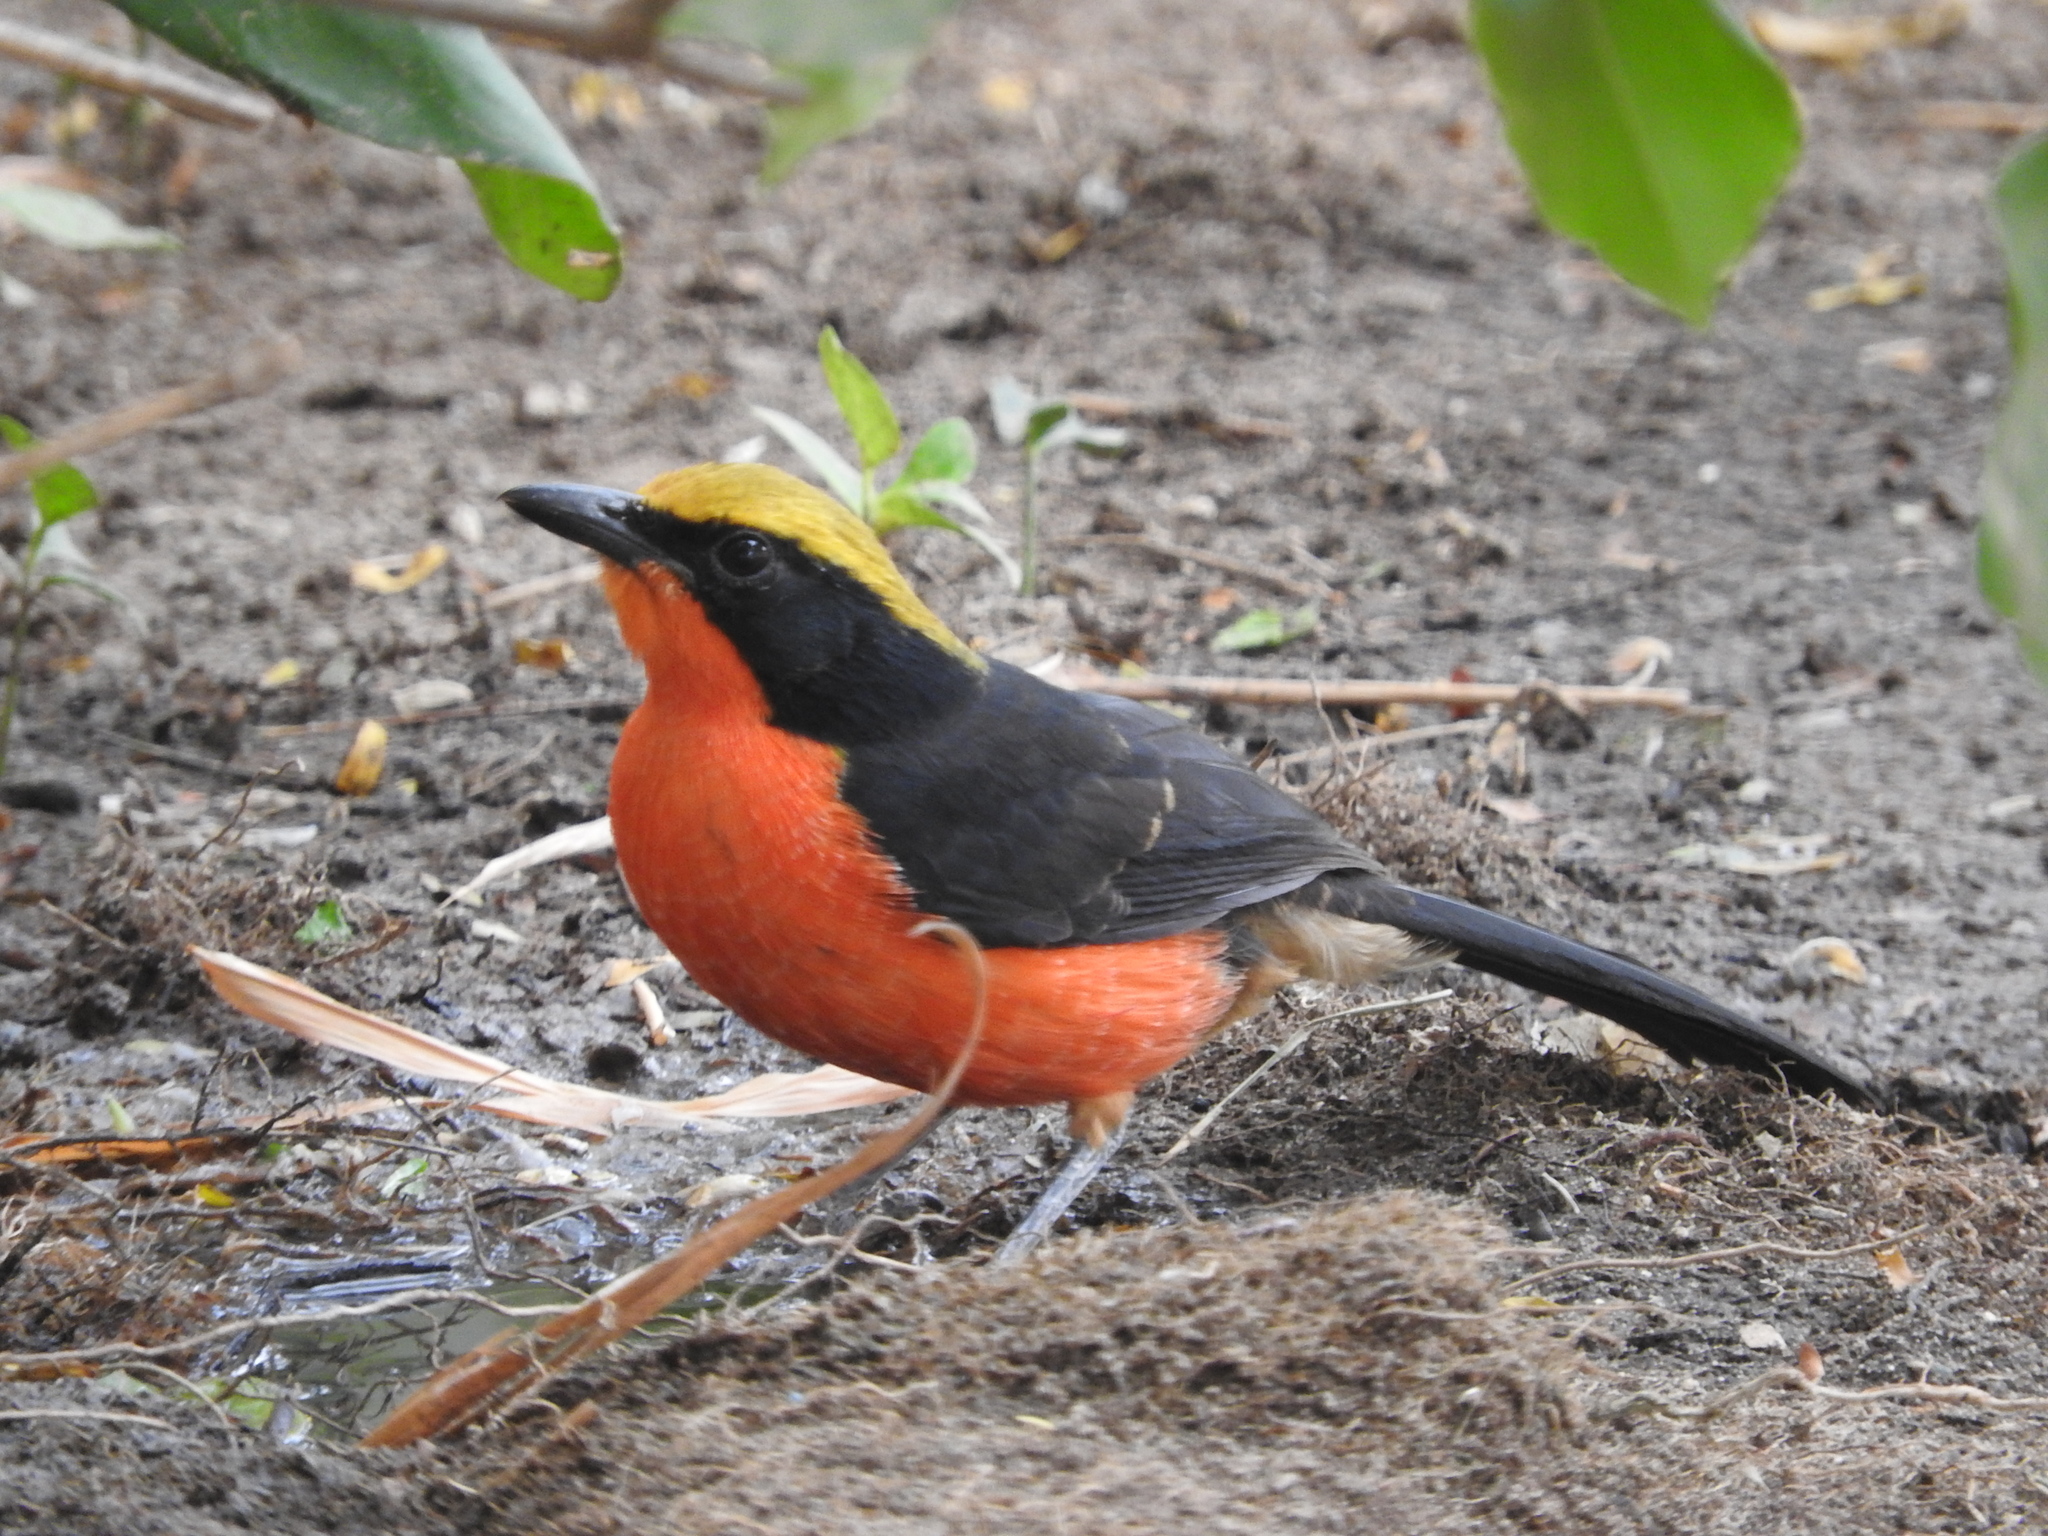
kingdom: Animalia
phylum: Chordata
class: Aves
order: Passeriformes
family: Malaconotidae
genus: Laniarius
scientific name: Laniarius barbarus
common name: Yellow-crowned gonolek
